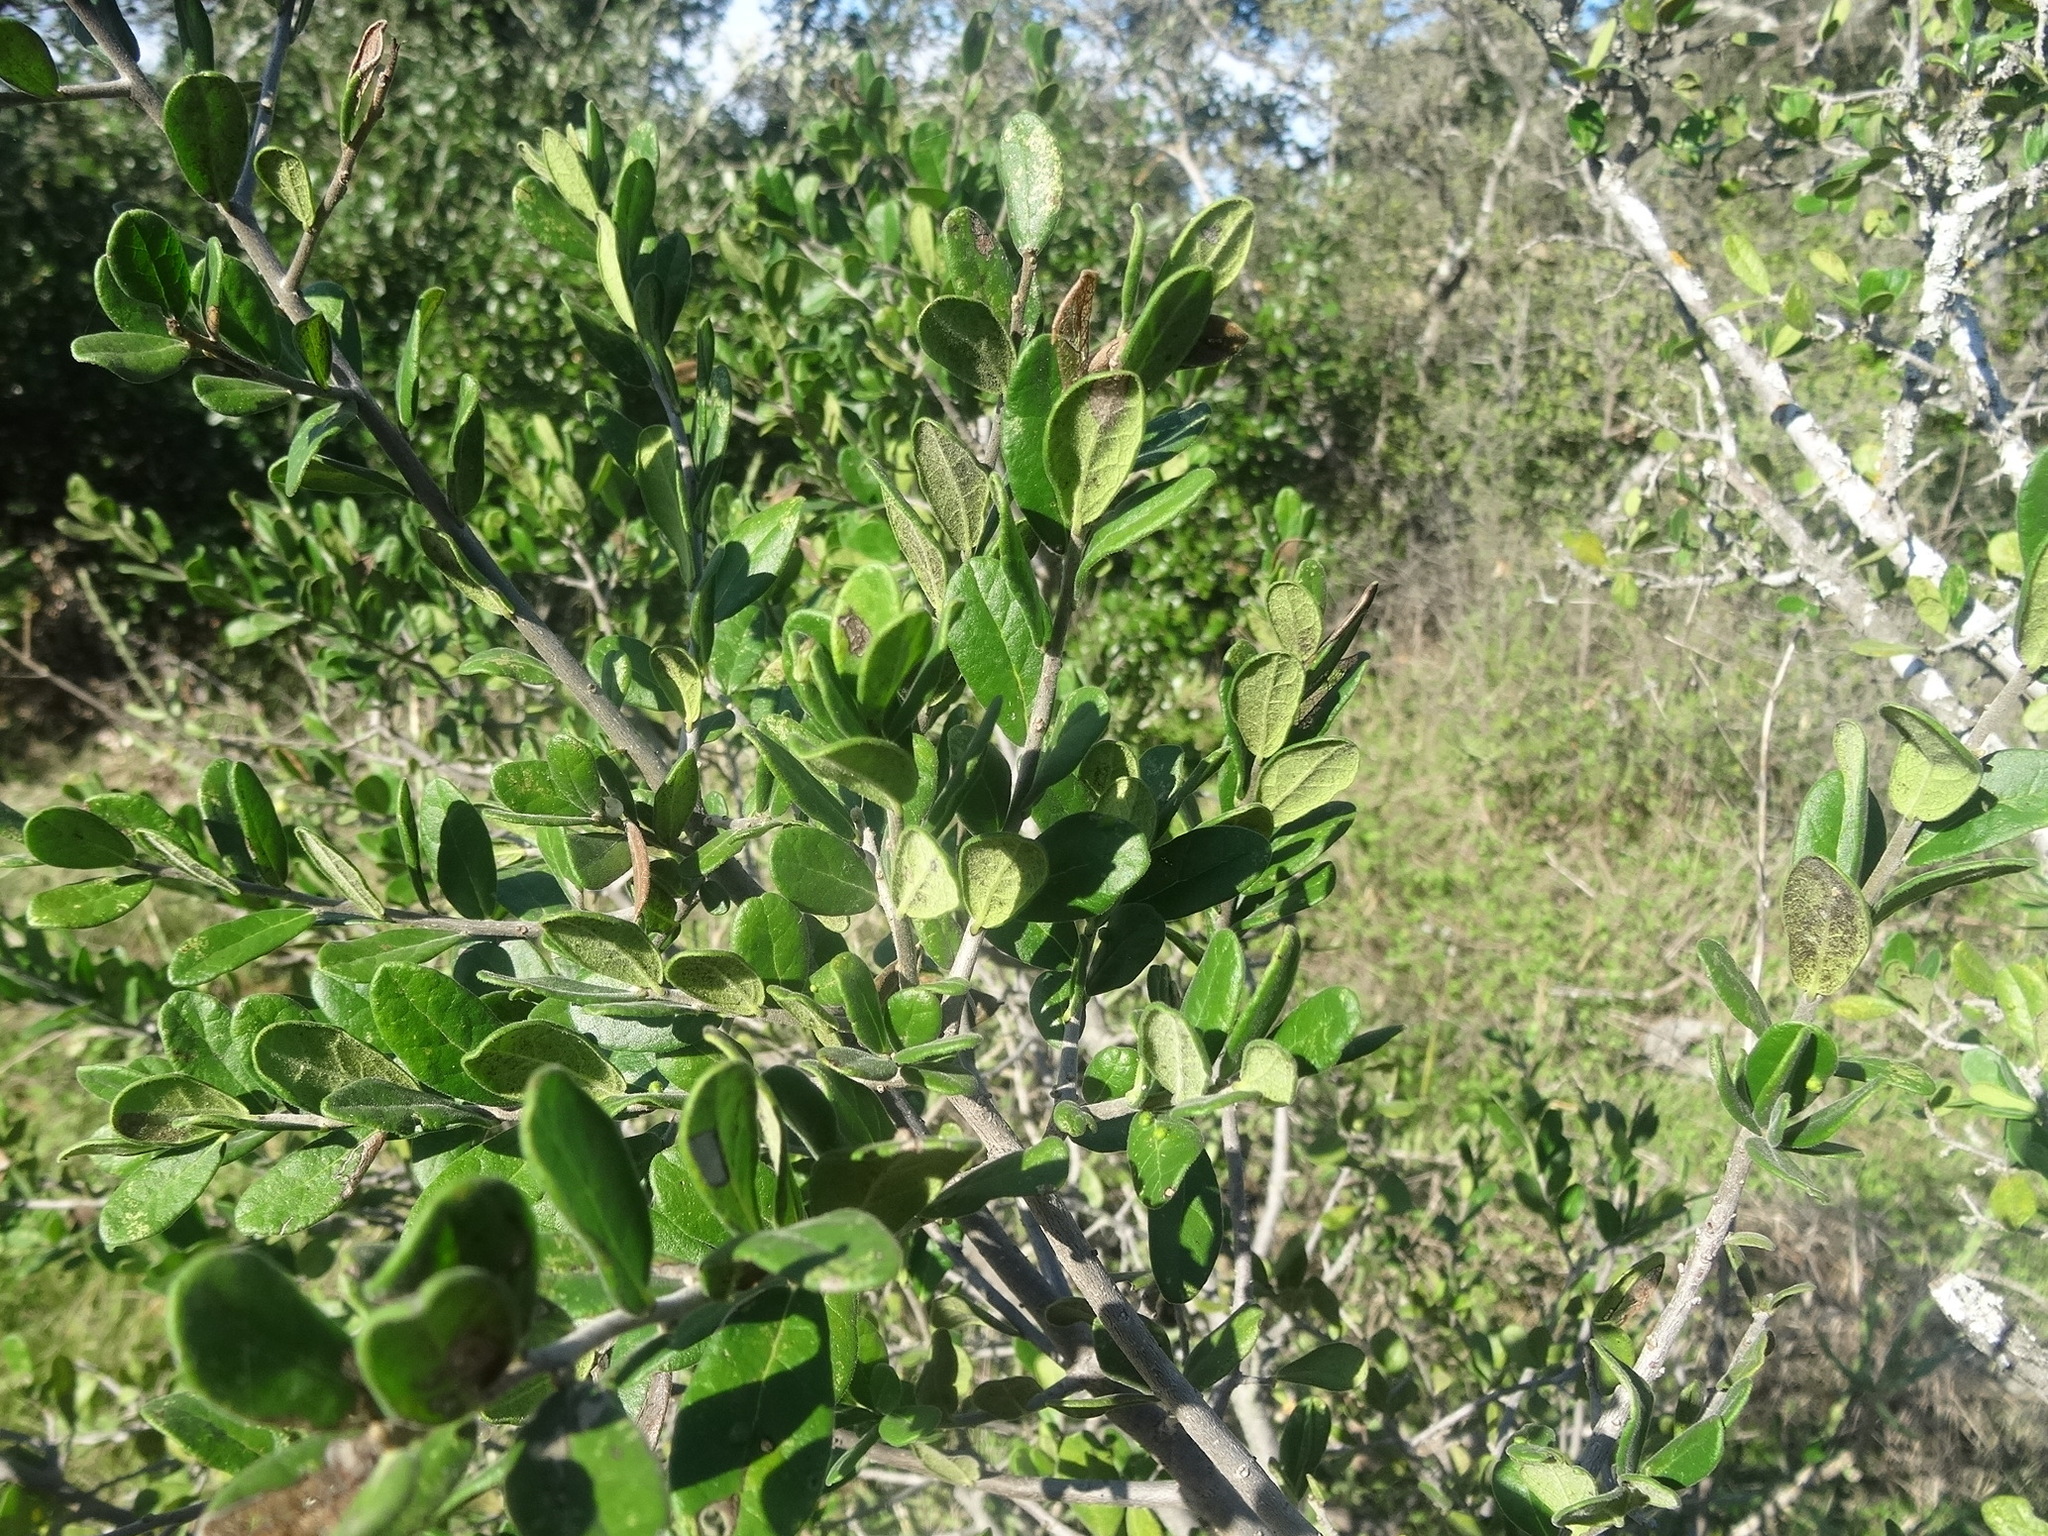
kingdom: Plantae
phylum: Tracheophyta
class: Magnoliopsida
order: Ericales
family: Ebenaceae
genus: Diospyros
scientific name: Diospyros texana
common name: Texas persimmon
